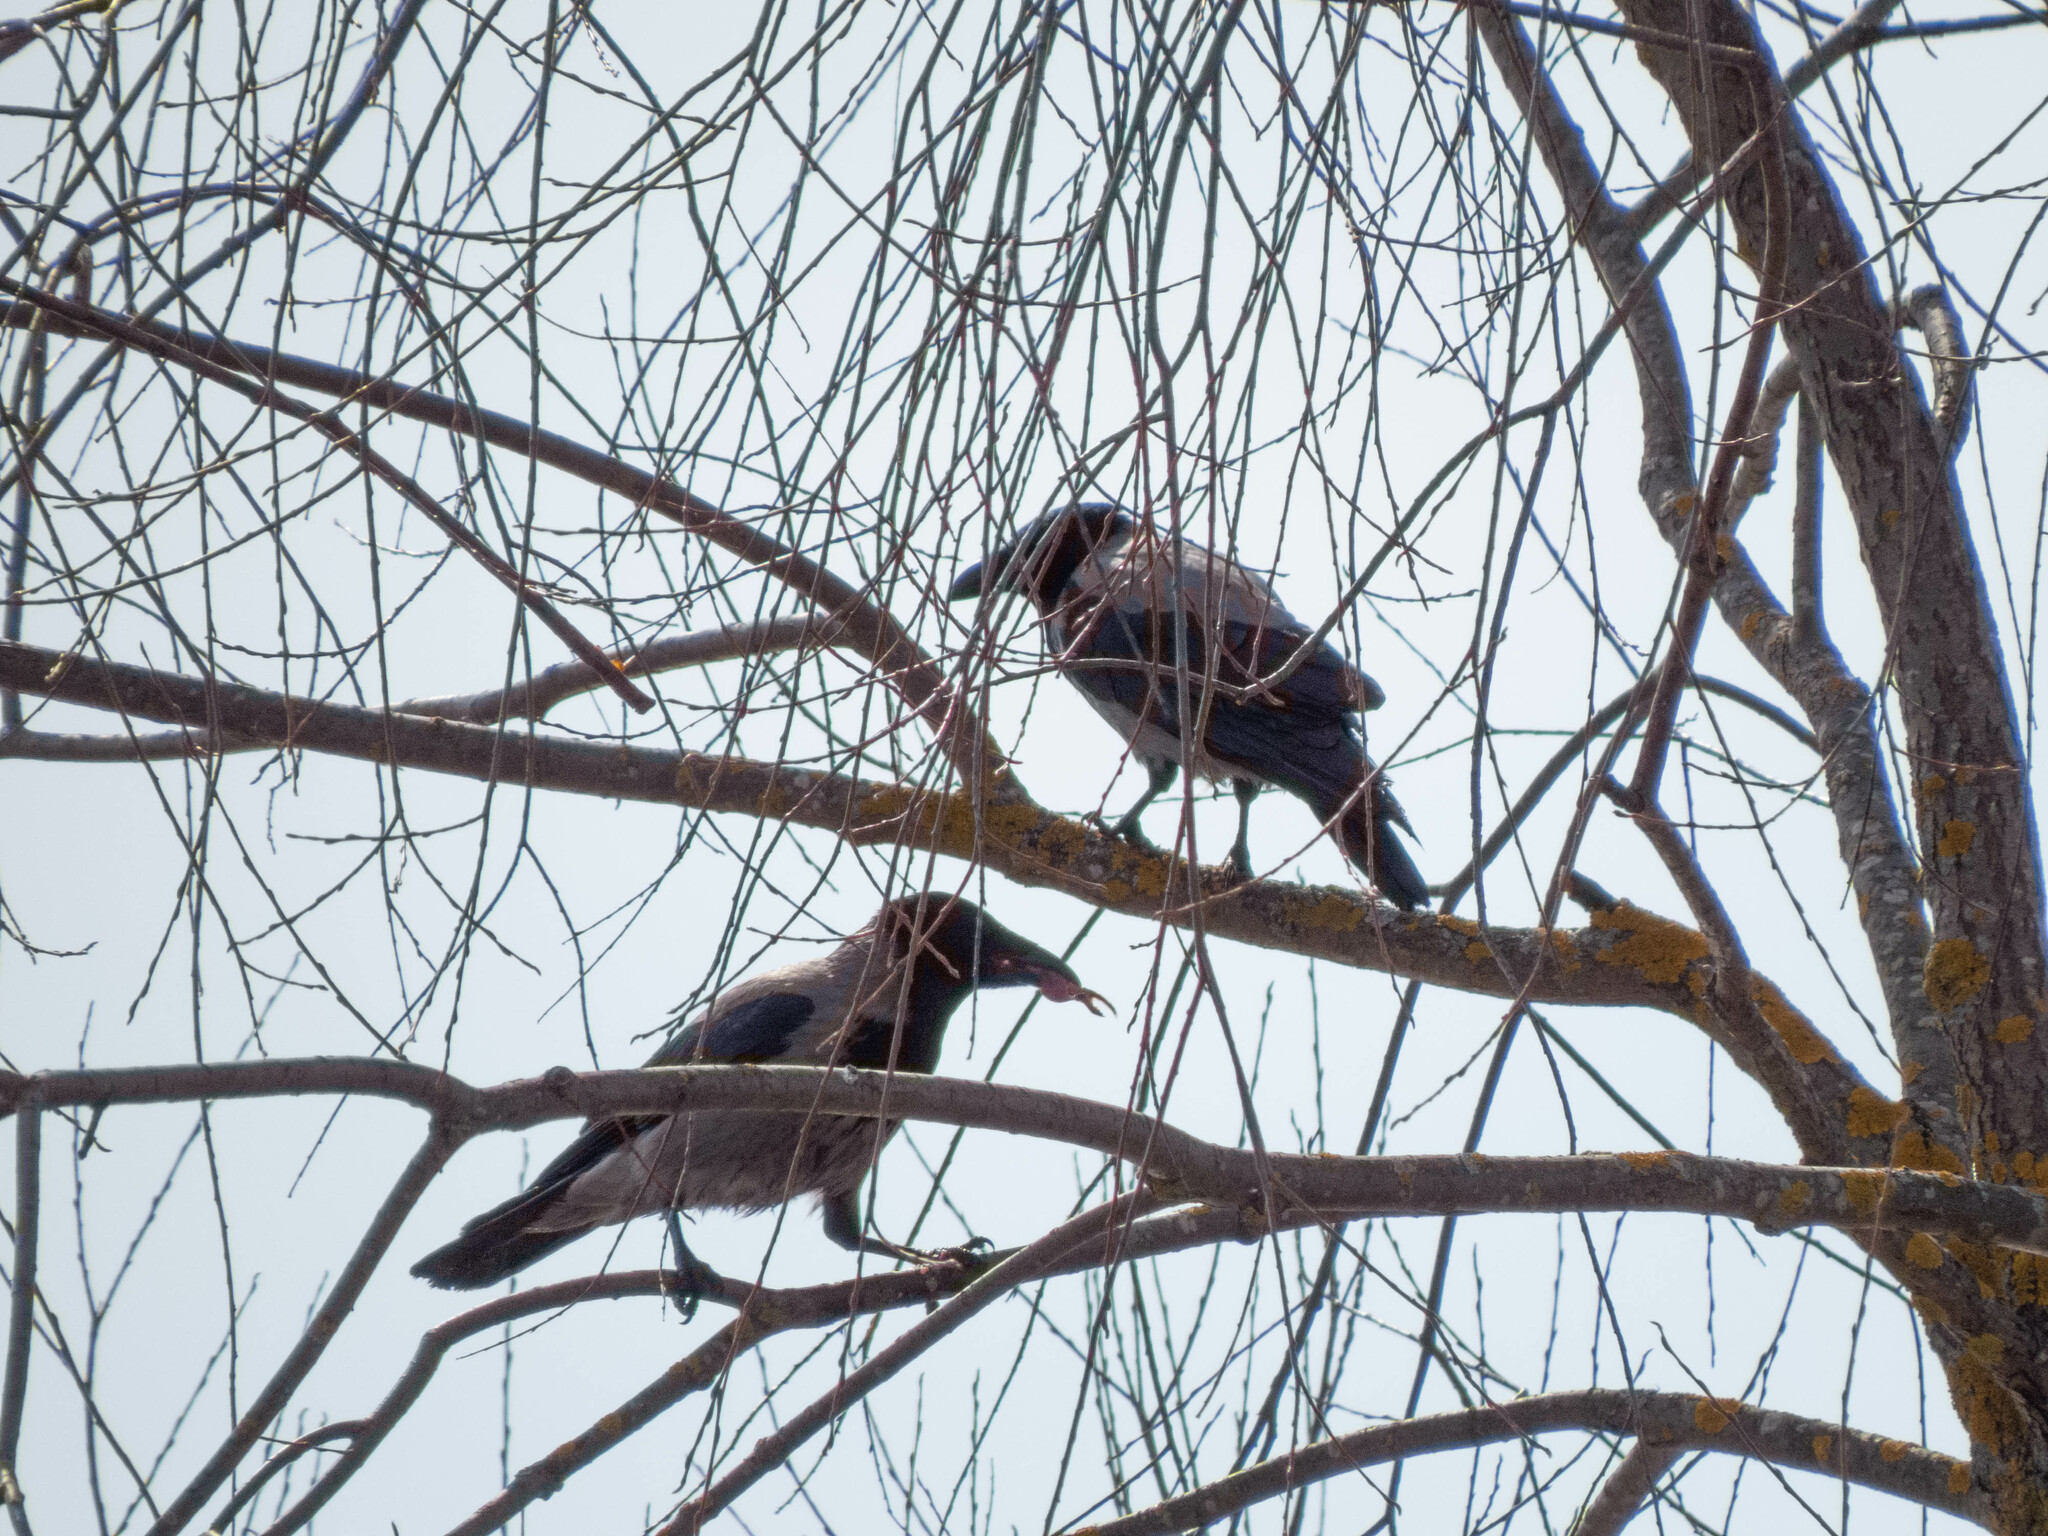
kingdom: Animalia
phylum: Chordata
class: Aves
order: Passeriformes
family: Corvidae
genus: Corvus
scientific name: Corvus cornix
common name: Hooded crow
